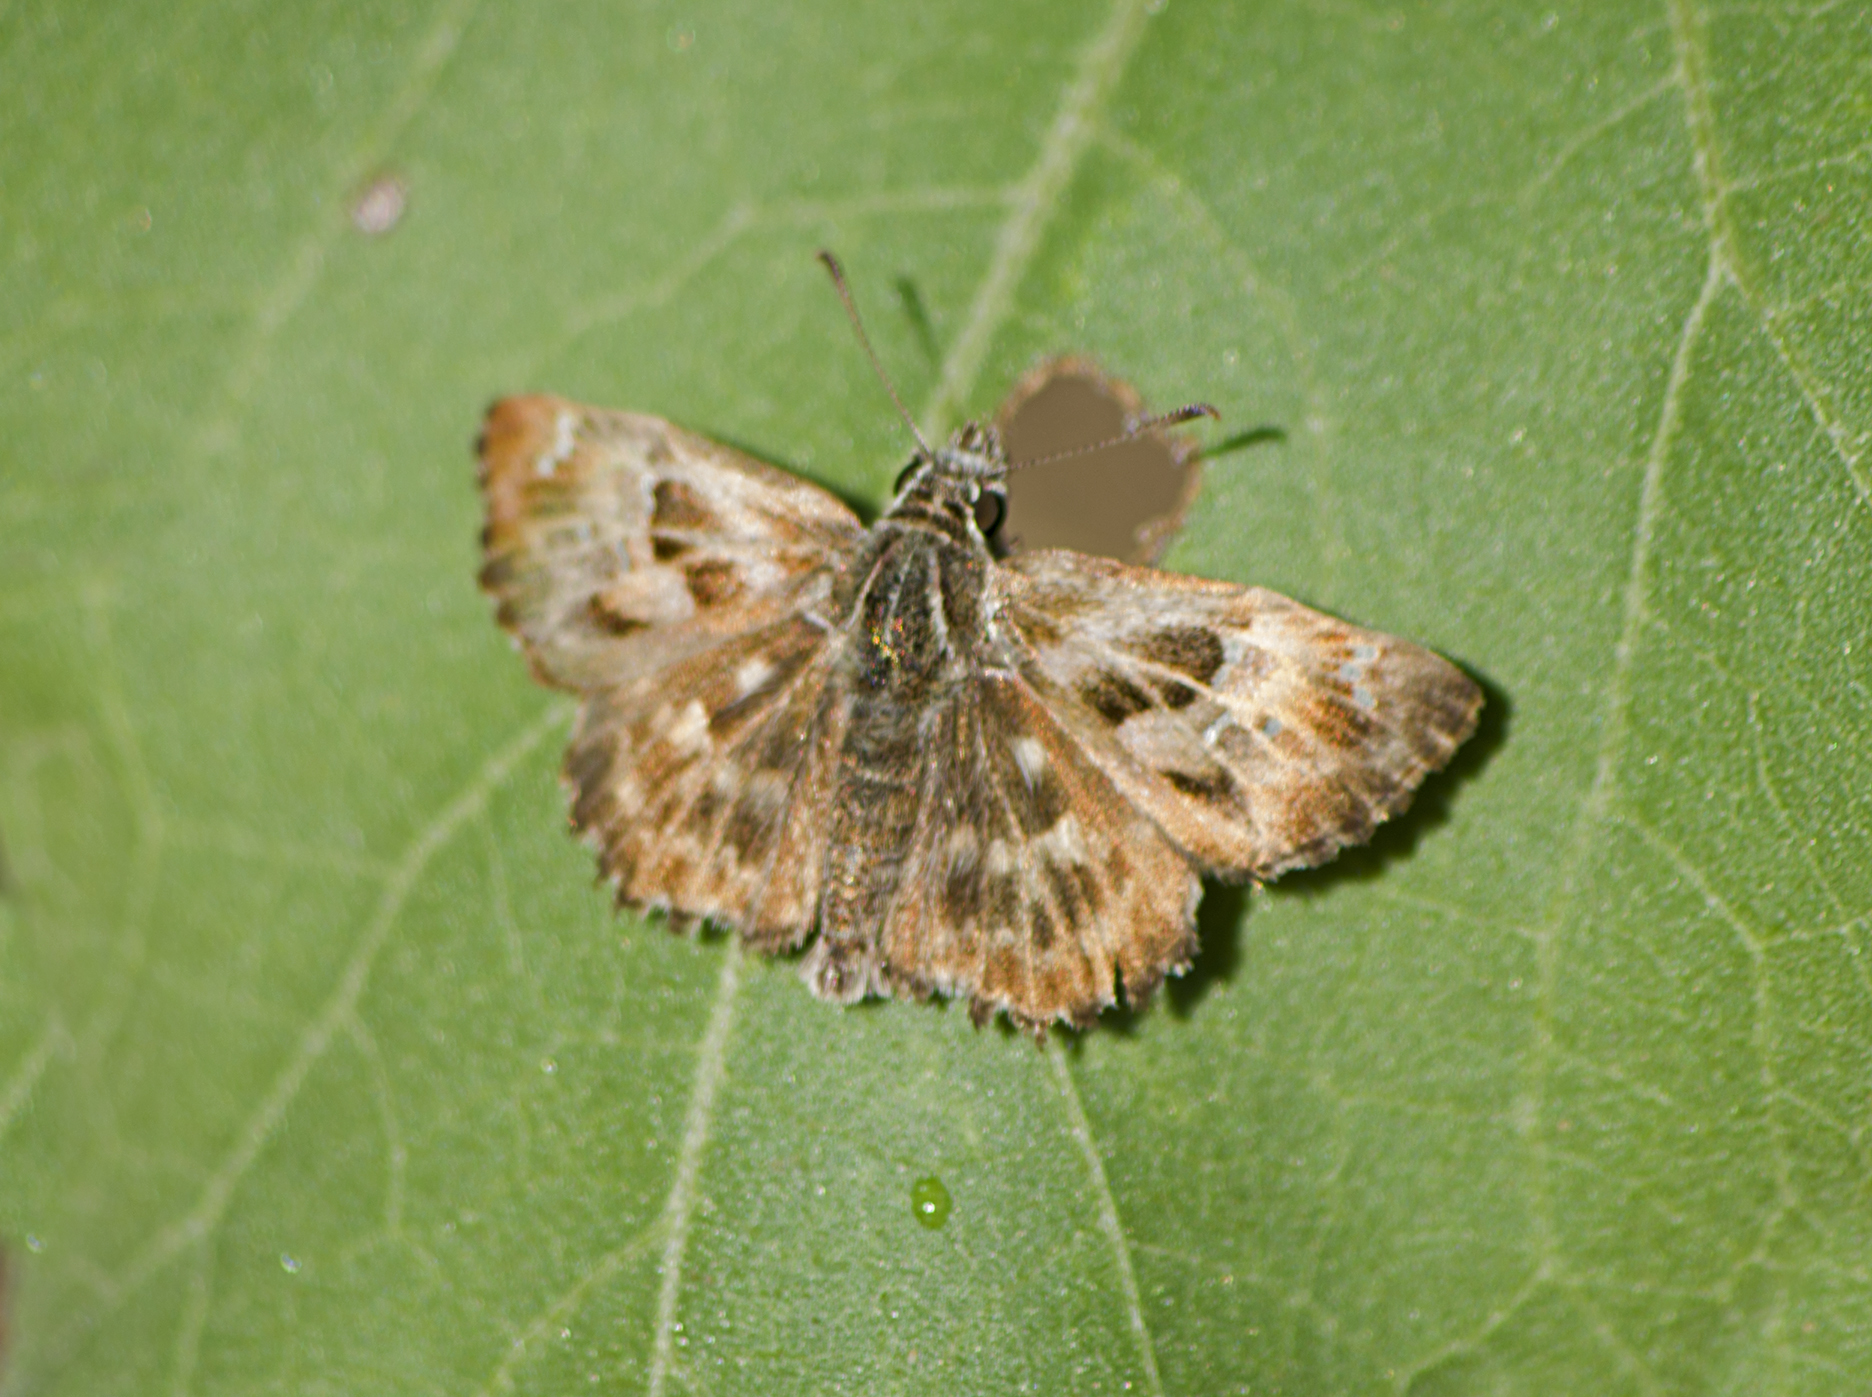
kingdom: Animalia
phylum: Arthropoda
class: Insecta
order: Lepidoptera
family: Hesperiidae
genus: Carcharodus
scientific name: Carcharodus alceae
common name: Mallow skipper
